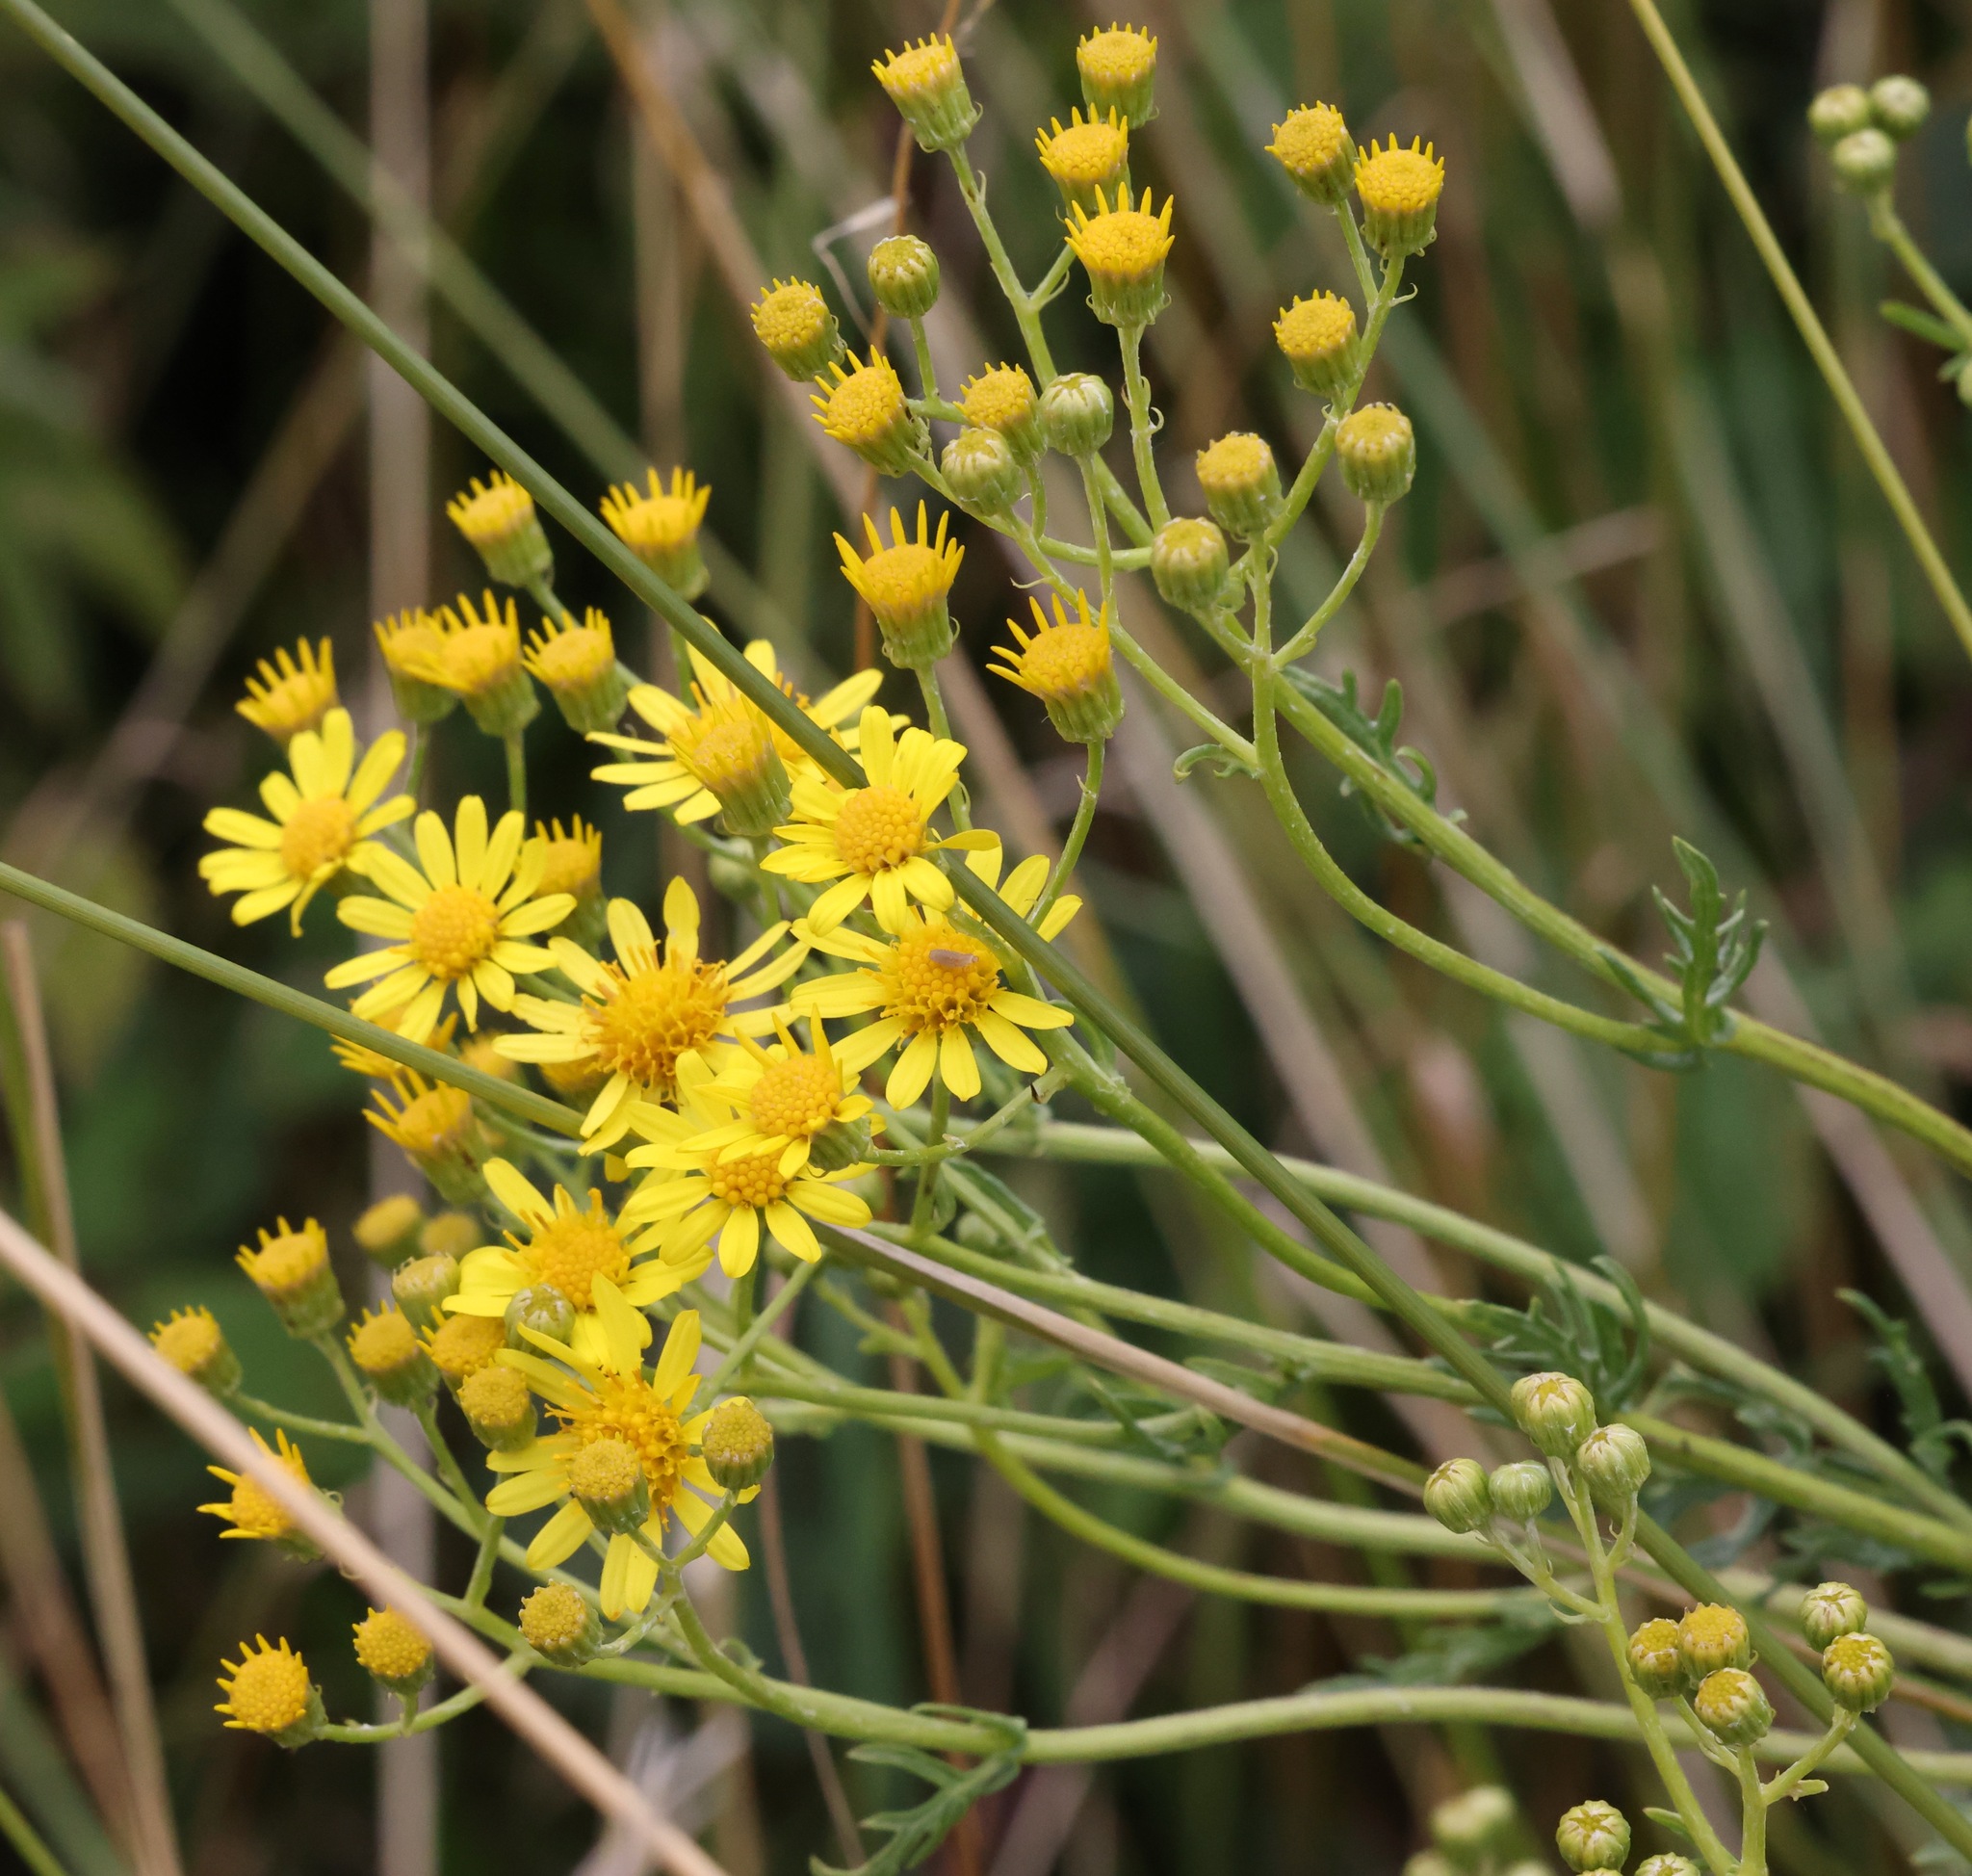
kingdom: Plantae
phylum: Tracheophyta
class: Magnoliopsida
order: Asterales
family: Asteraceae
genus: Jacobaea
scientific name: Jacobaea vulgaris
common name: Stinking willie
